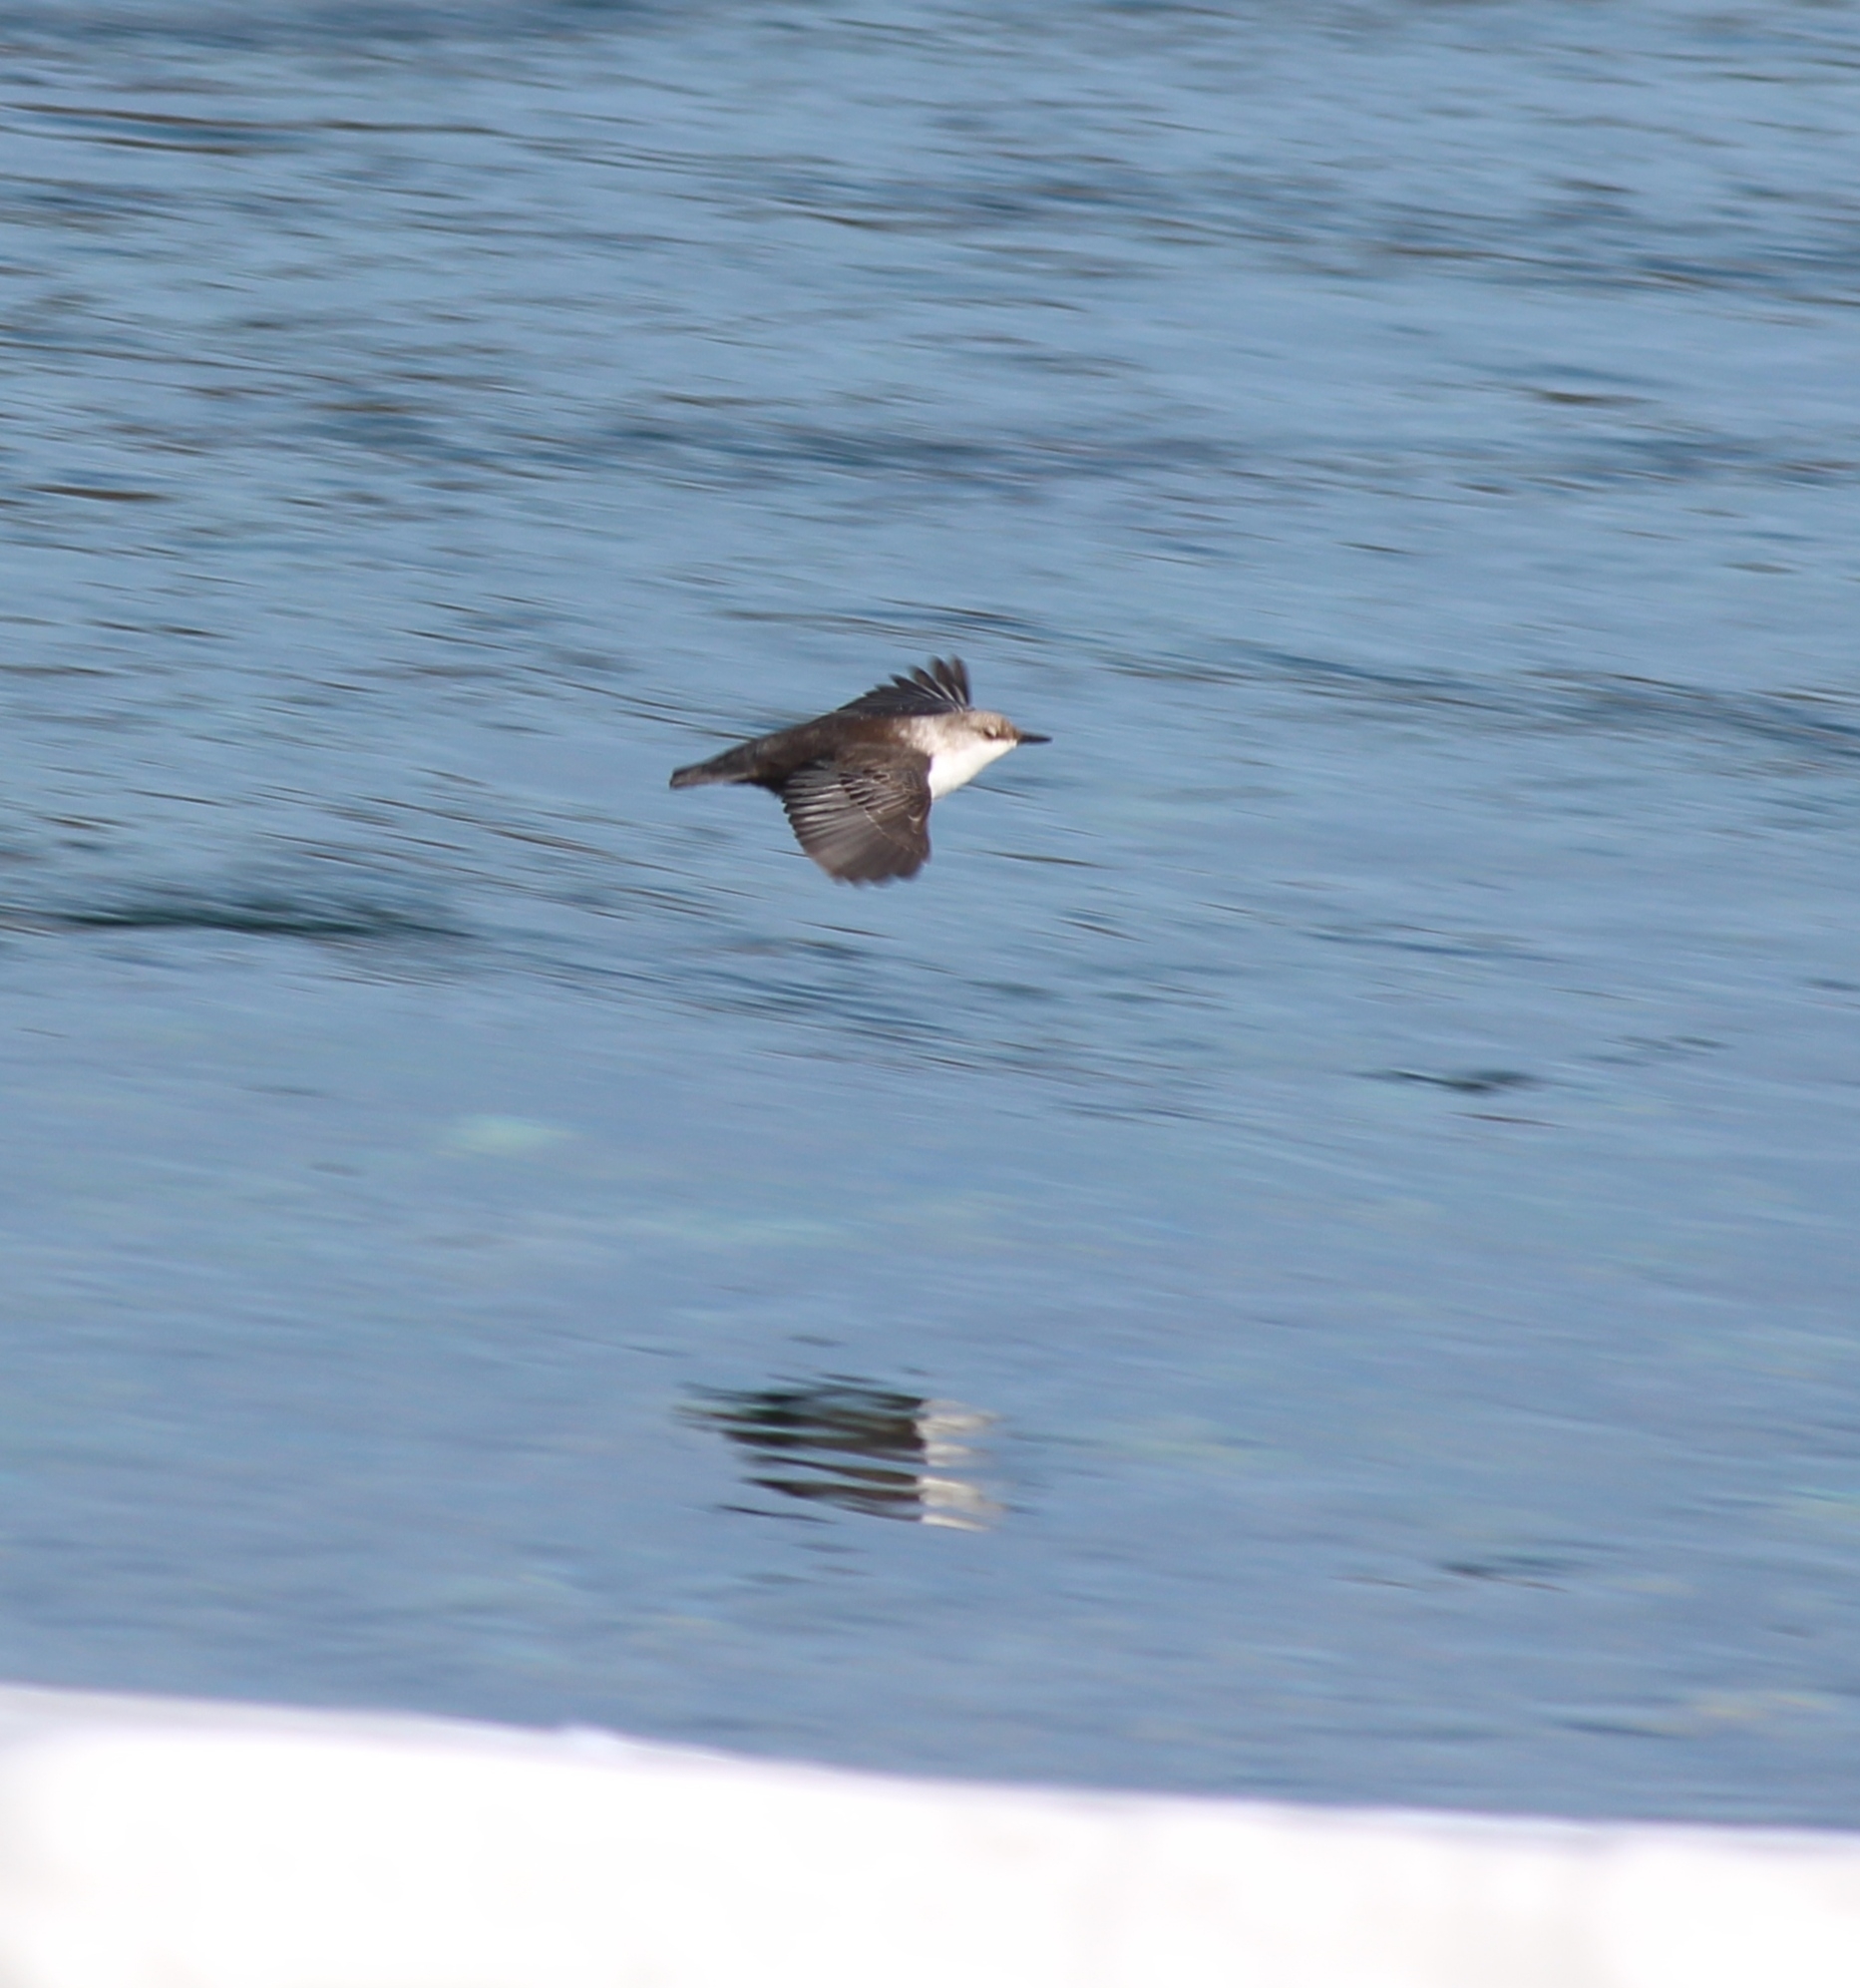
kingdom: Animalia
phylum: Chordata
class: Aves
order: Passeriformes
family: Cinclidae
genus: Cinclus
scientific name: Cinclus cinclus
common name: White-throated dipper
